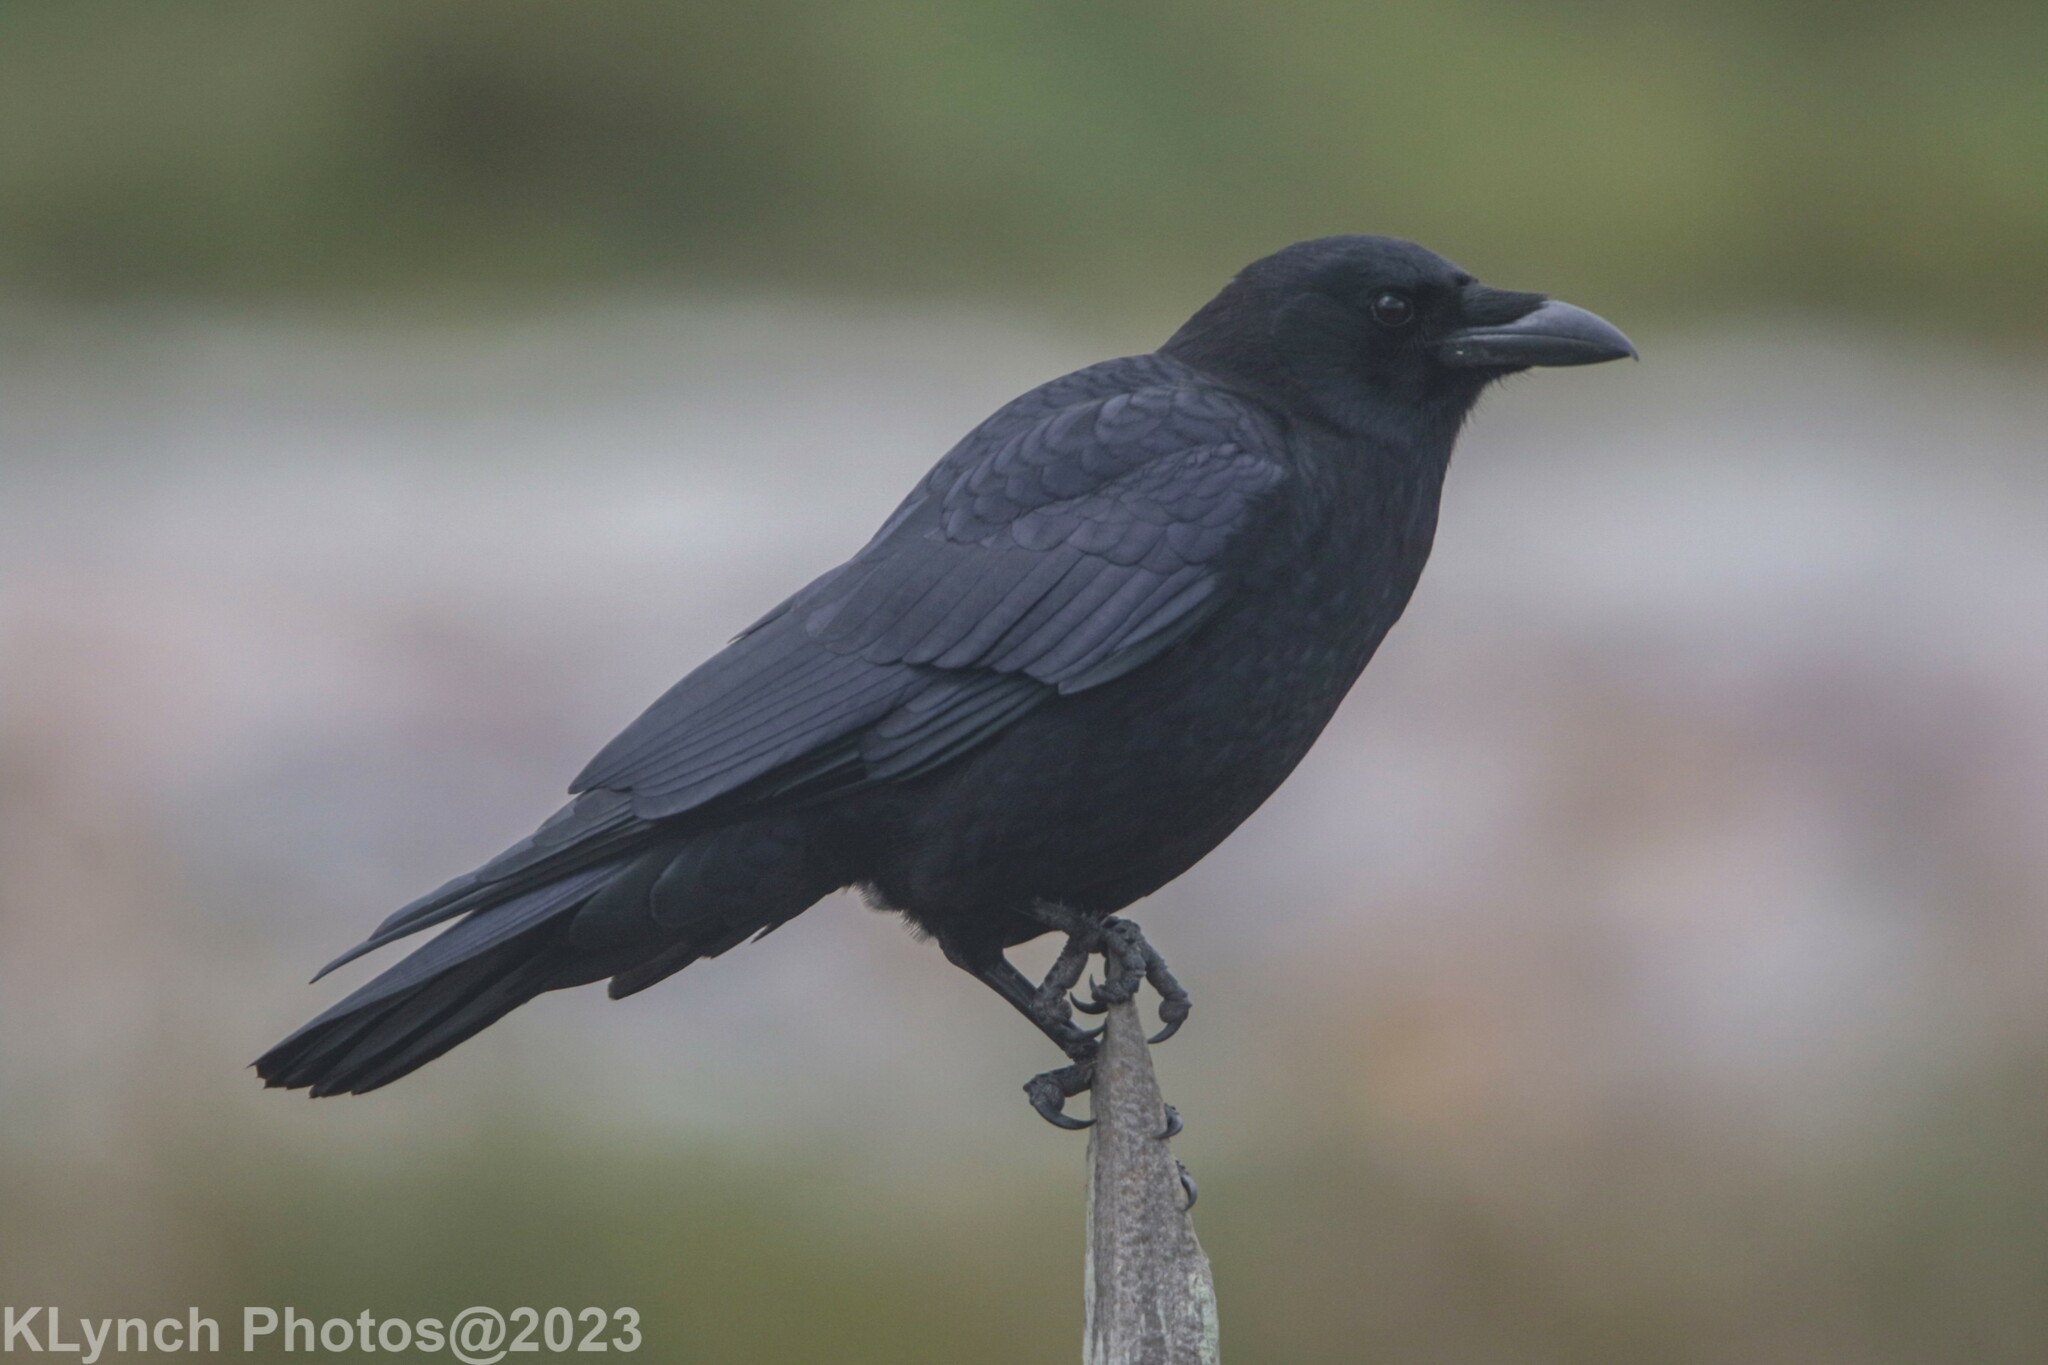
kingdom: Animalia
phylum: Chordata
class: Aves
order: Passeriformes
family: Corvidae
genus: Corvus
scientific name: Corvus brachyrhynchos
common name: American crow
